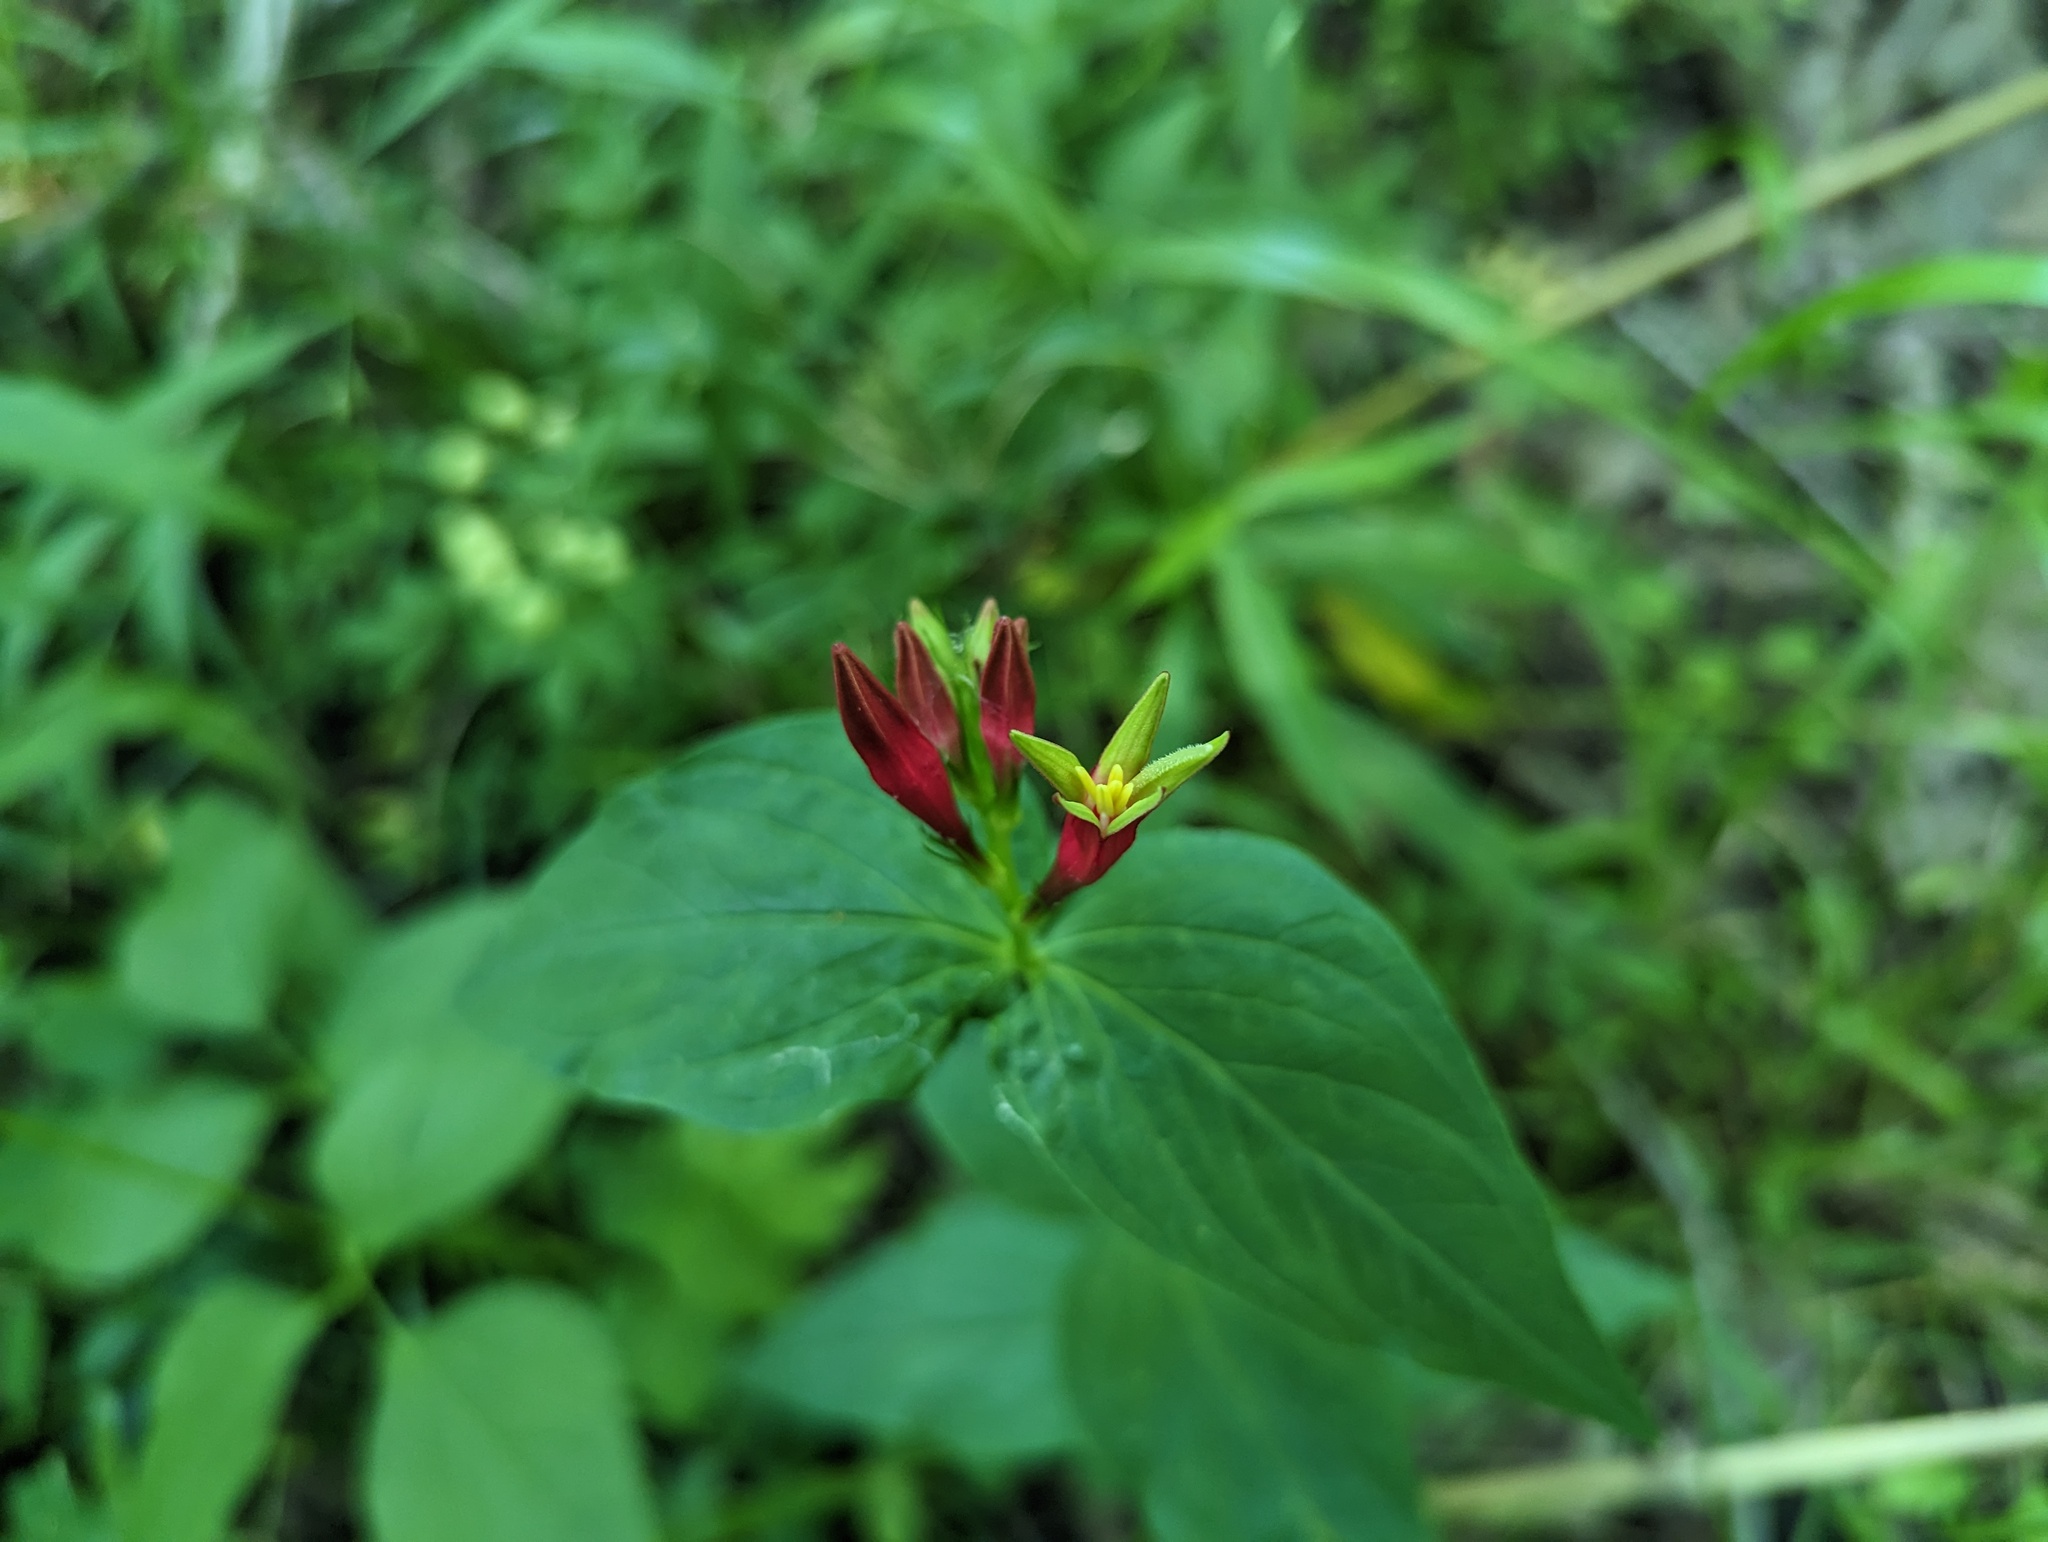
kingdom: Plantae
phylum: Tracheophyta
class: Magnoliopsida
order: Gentianales
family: Loganiaceae
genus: Spigelia
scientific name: Spigelia marilandica
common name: Indian-pink
